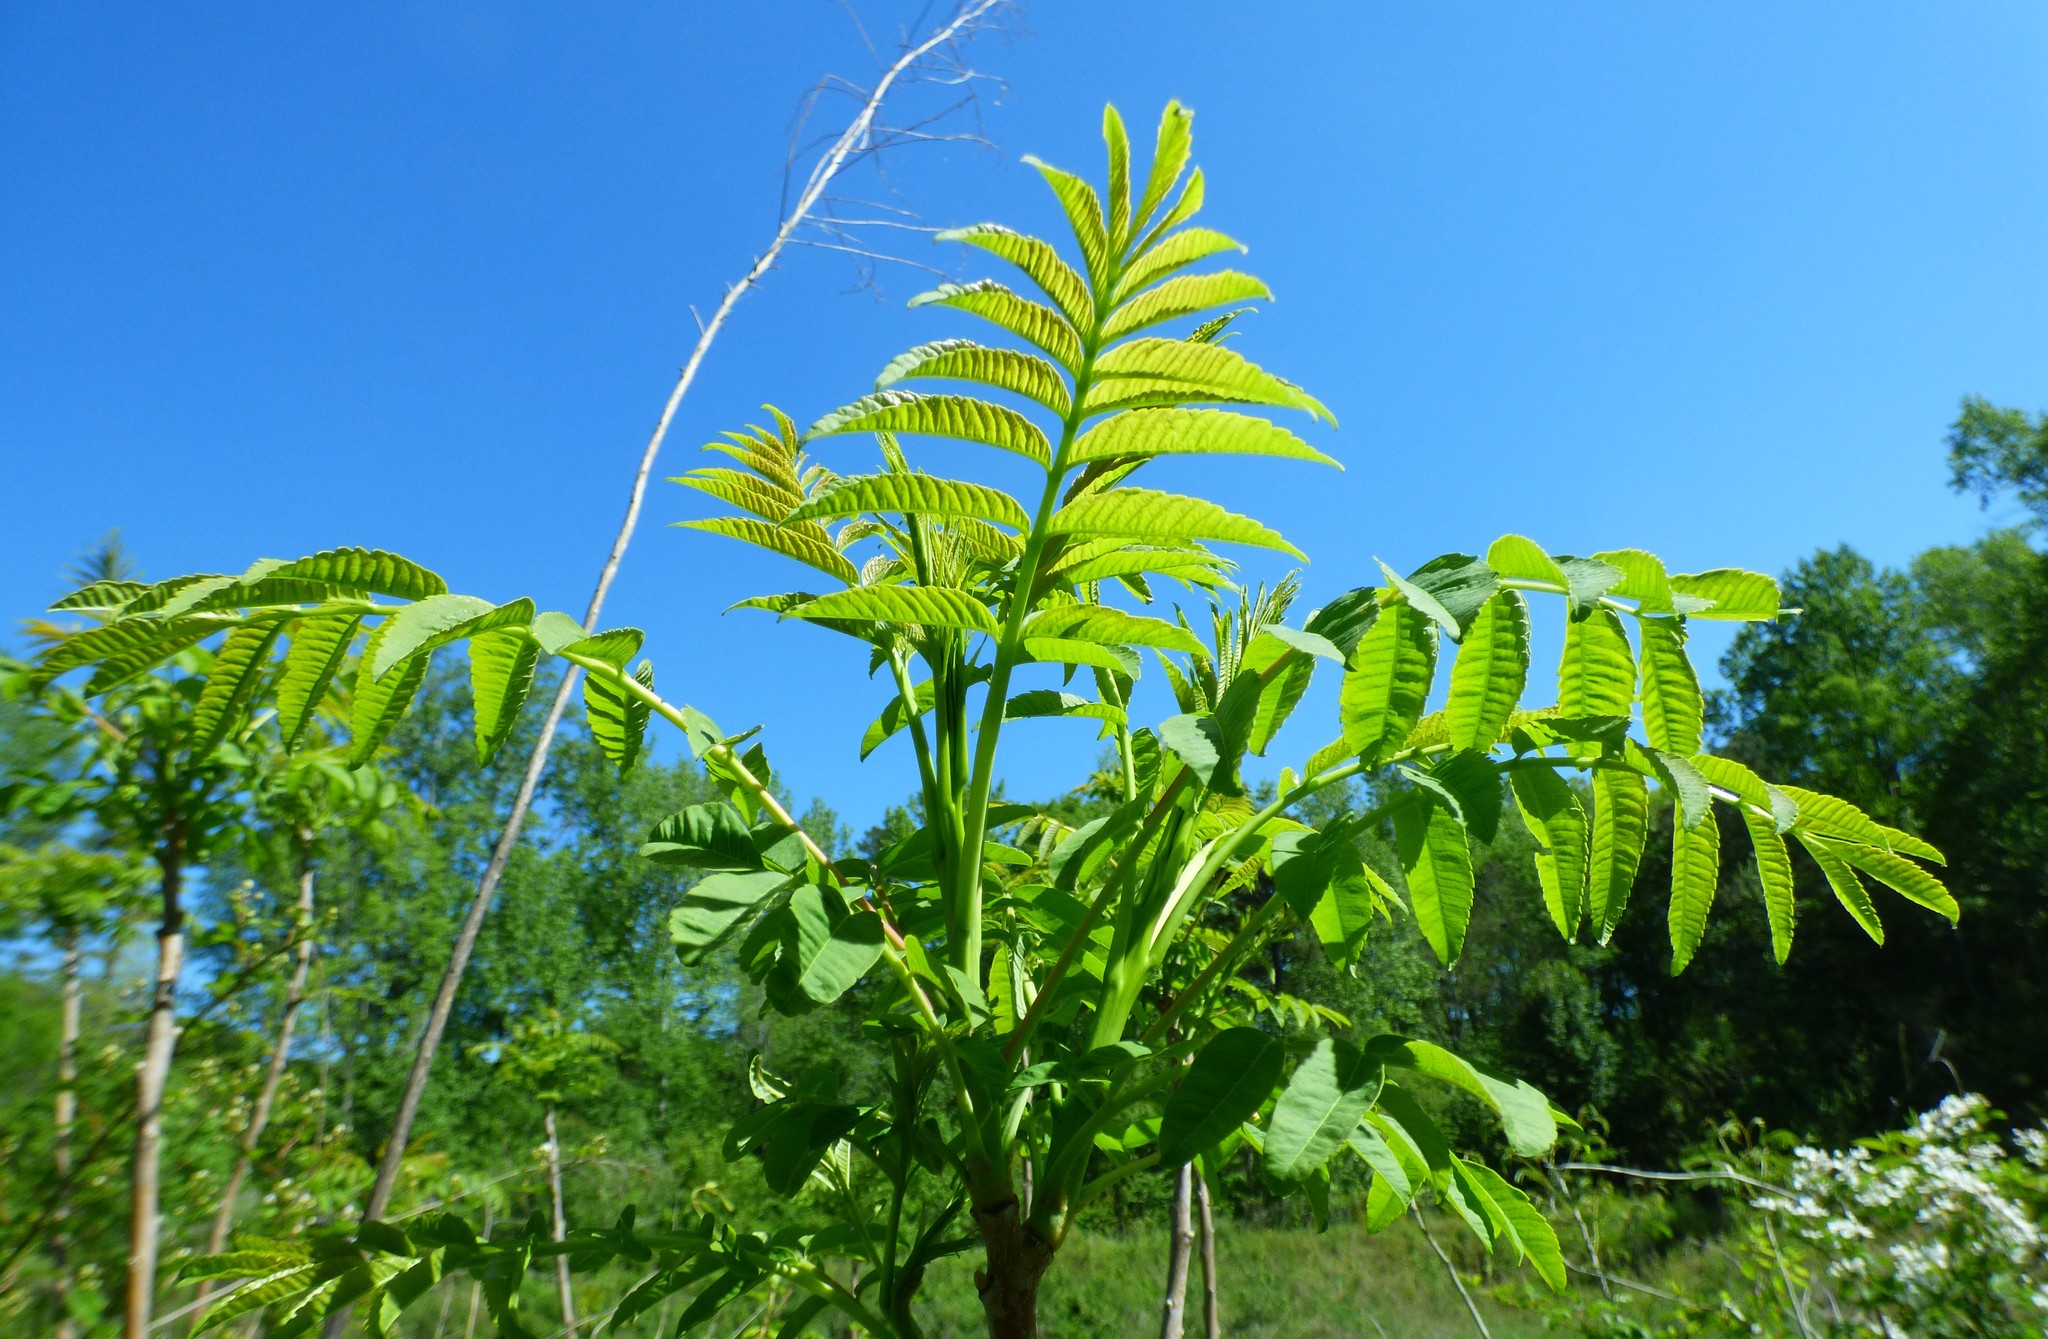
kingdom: Plantae
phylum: Tracheophyta
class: Magnoliopsida
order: Sapindales
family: Anacardiaceae
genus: Rhus
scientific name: Rhus glabra
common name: Scarlet sumac
